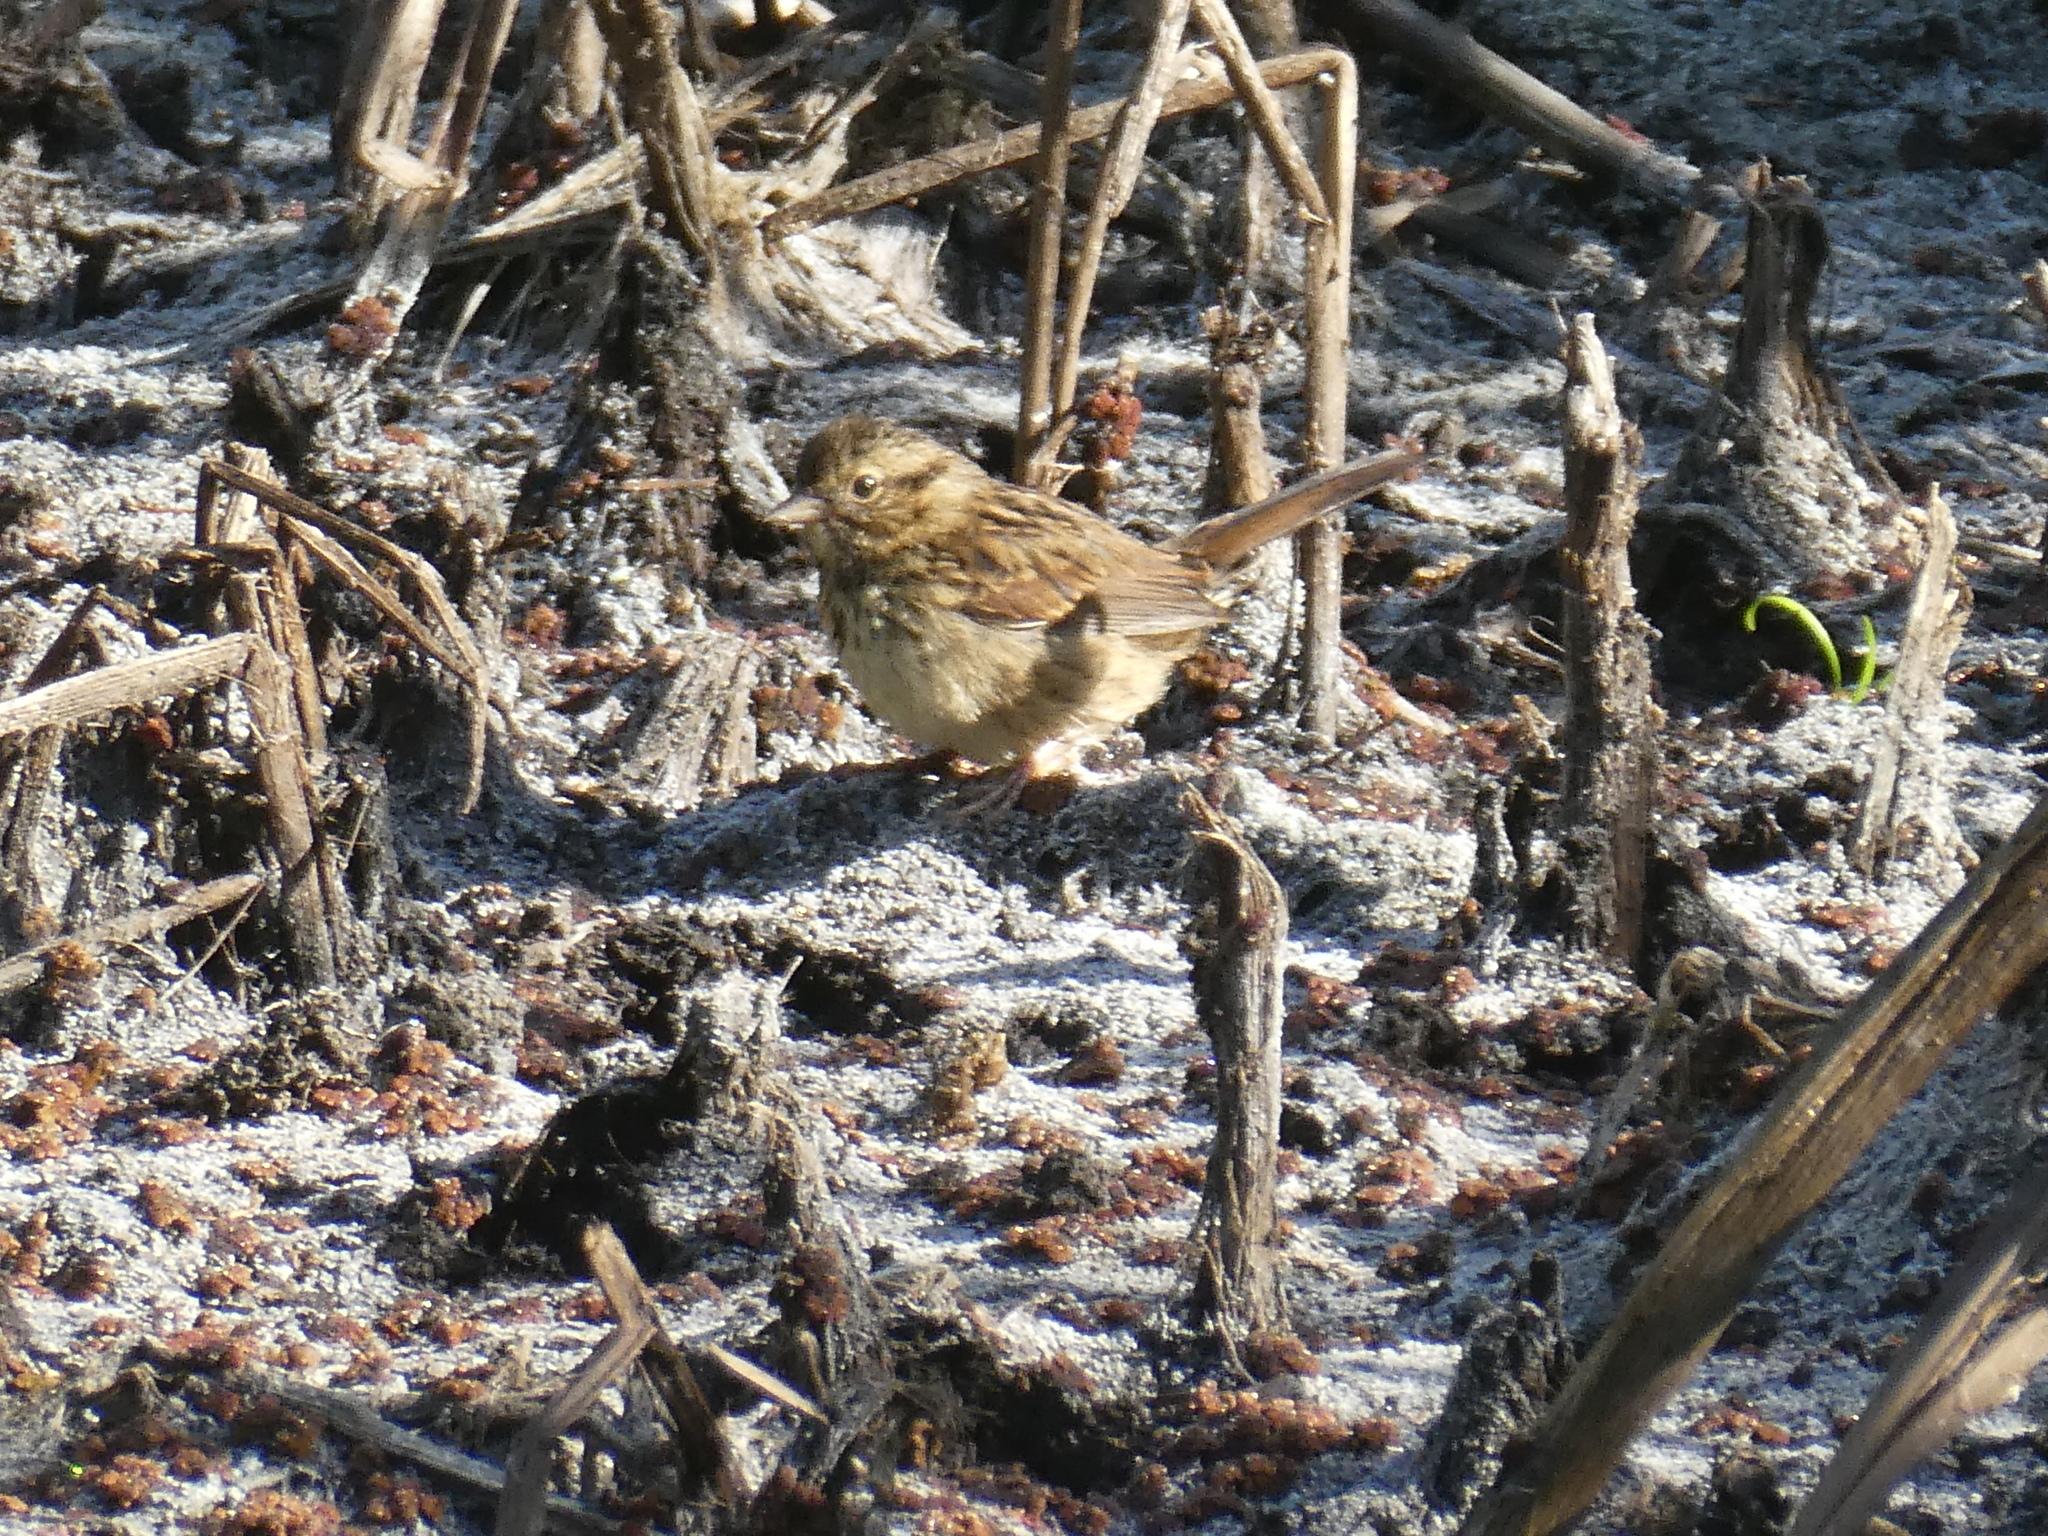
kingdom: Animalia
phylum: Chordata
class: Aves
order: Passeriformes
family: Passerellidae
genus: Melospiza
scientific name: Melospiza melodia
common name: Song sparrow
